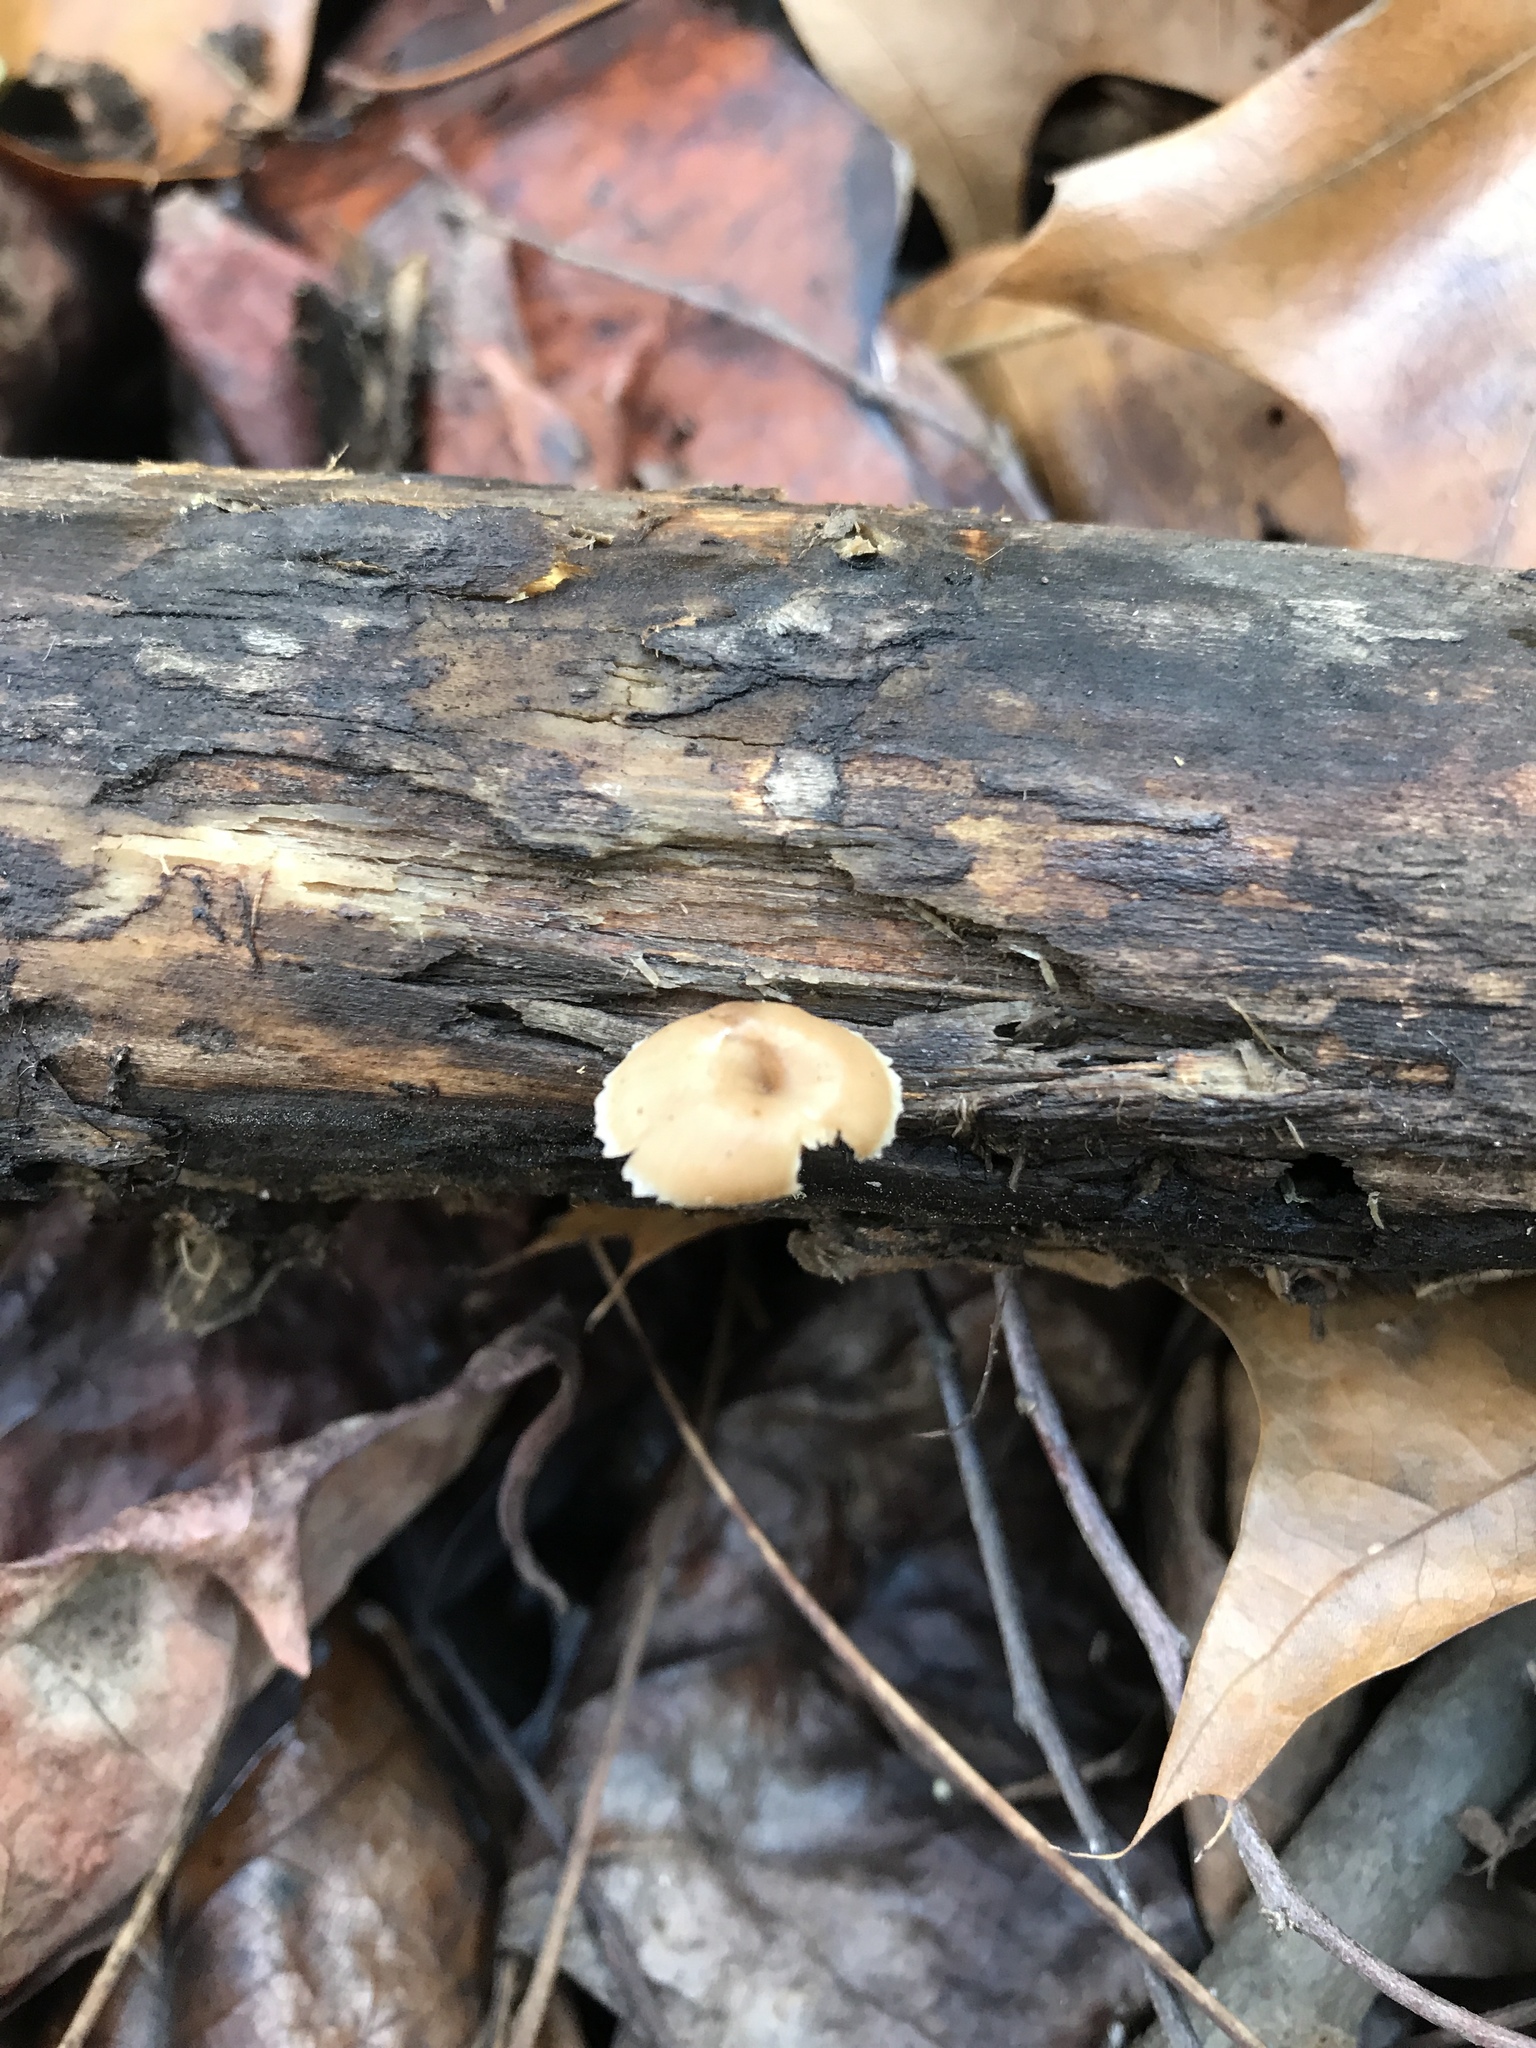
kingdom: Fungi
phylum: Basidiomycota
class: Agaricomycetes
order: Russulales
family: Auriscalpiaceae
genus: Lentinellus
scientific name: Lentinellus subaustralis
